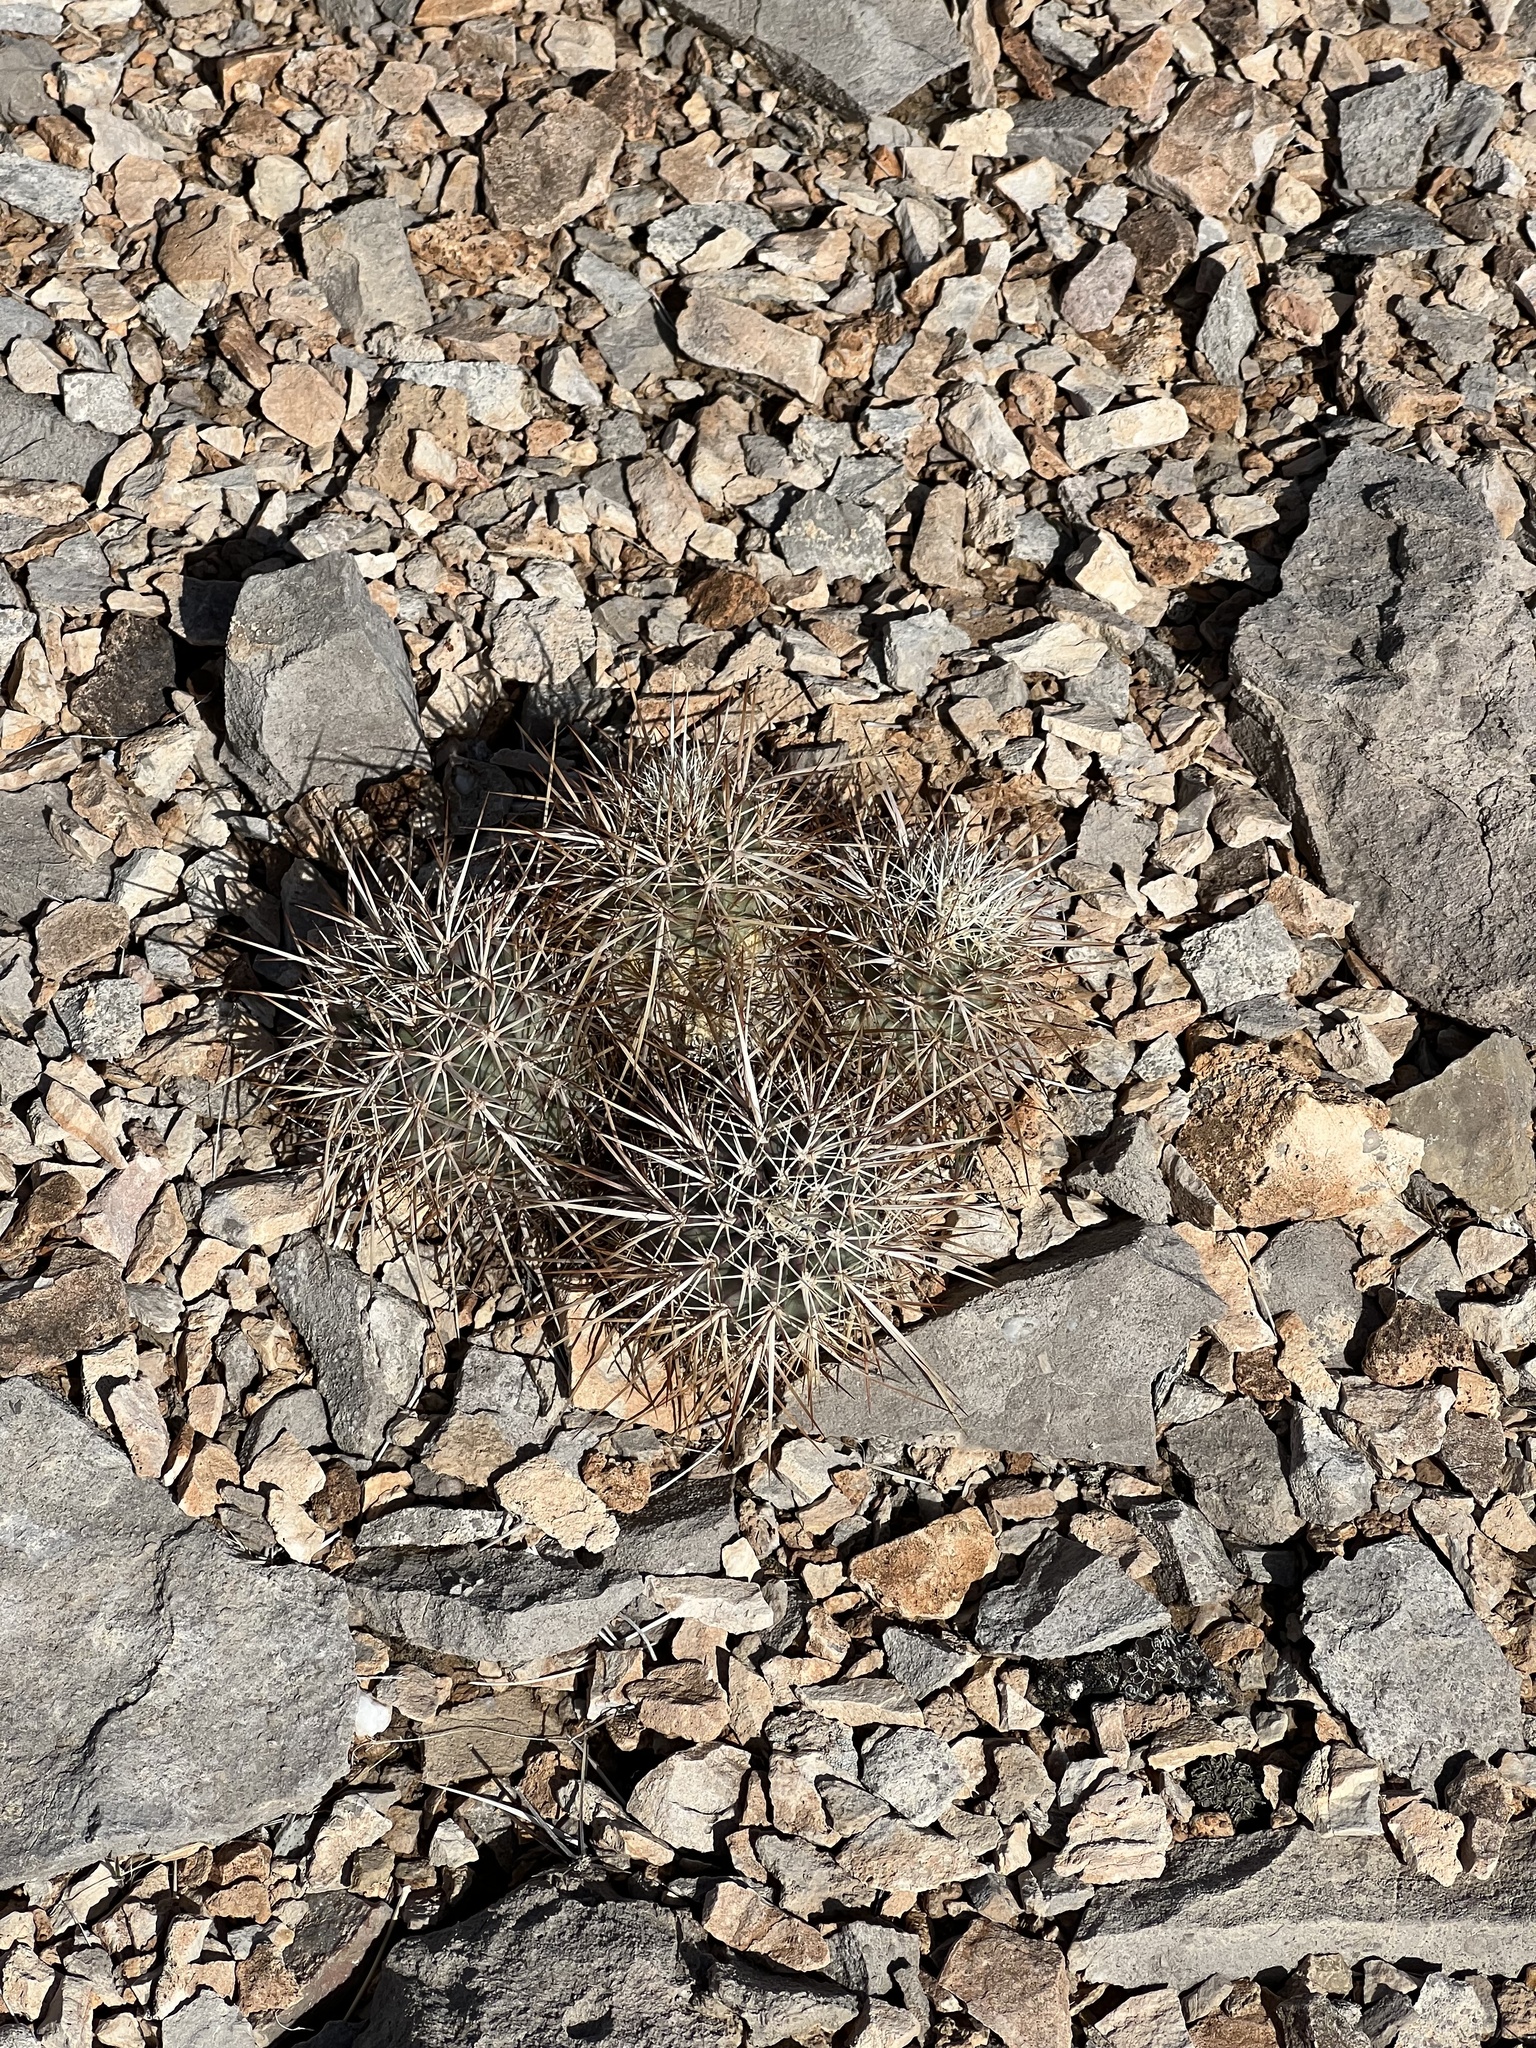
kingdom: Plantae
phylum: Tracheophyta
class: Magnoliopsida
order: Caryophyllales
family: Cactaceae
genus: Echinocereus
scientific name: Echinocereus engelmannii
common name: Engelmann's hedgehog cactus
